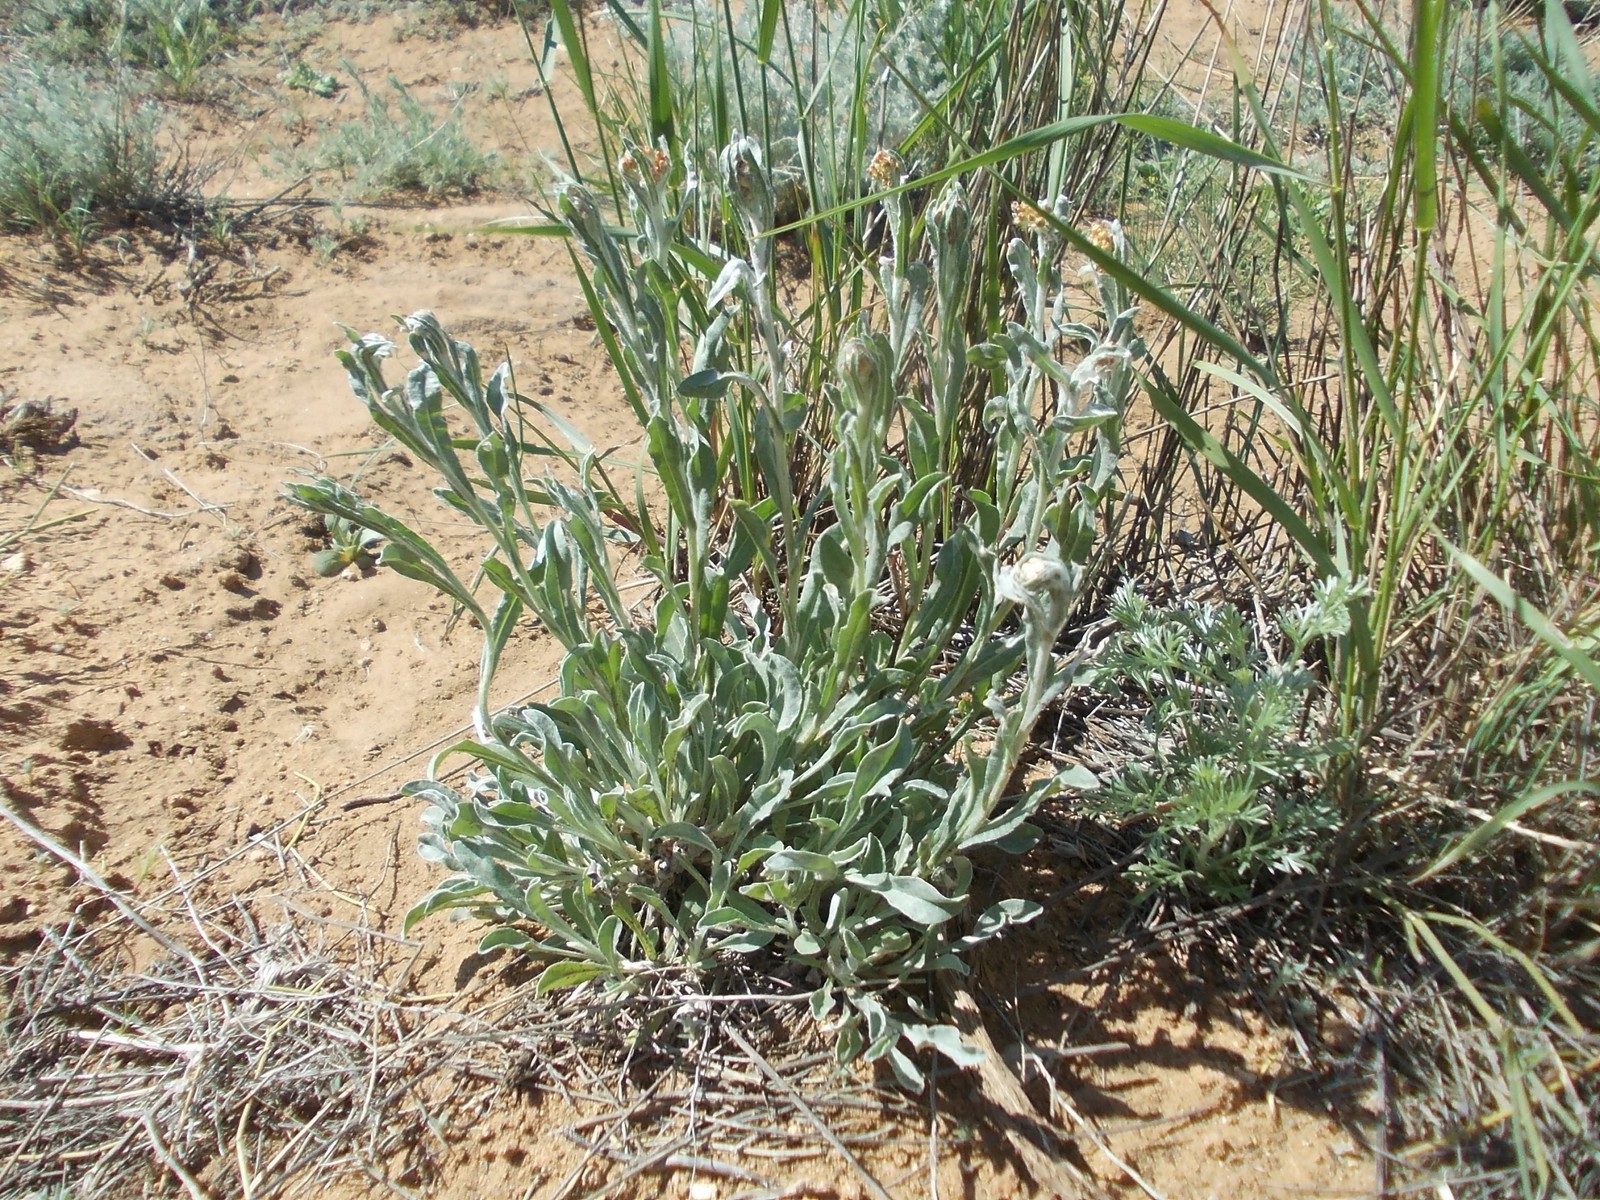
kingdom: Plantae
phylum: Tracheophyta
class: Magnoliopsida
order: Asterales
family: Asteraceae
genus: Helichrysum
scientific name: Helichrysum arenarium
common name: Strawflower
